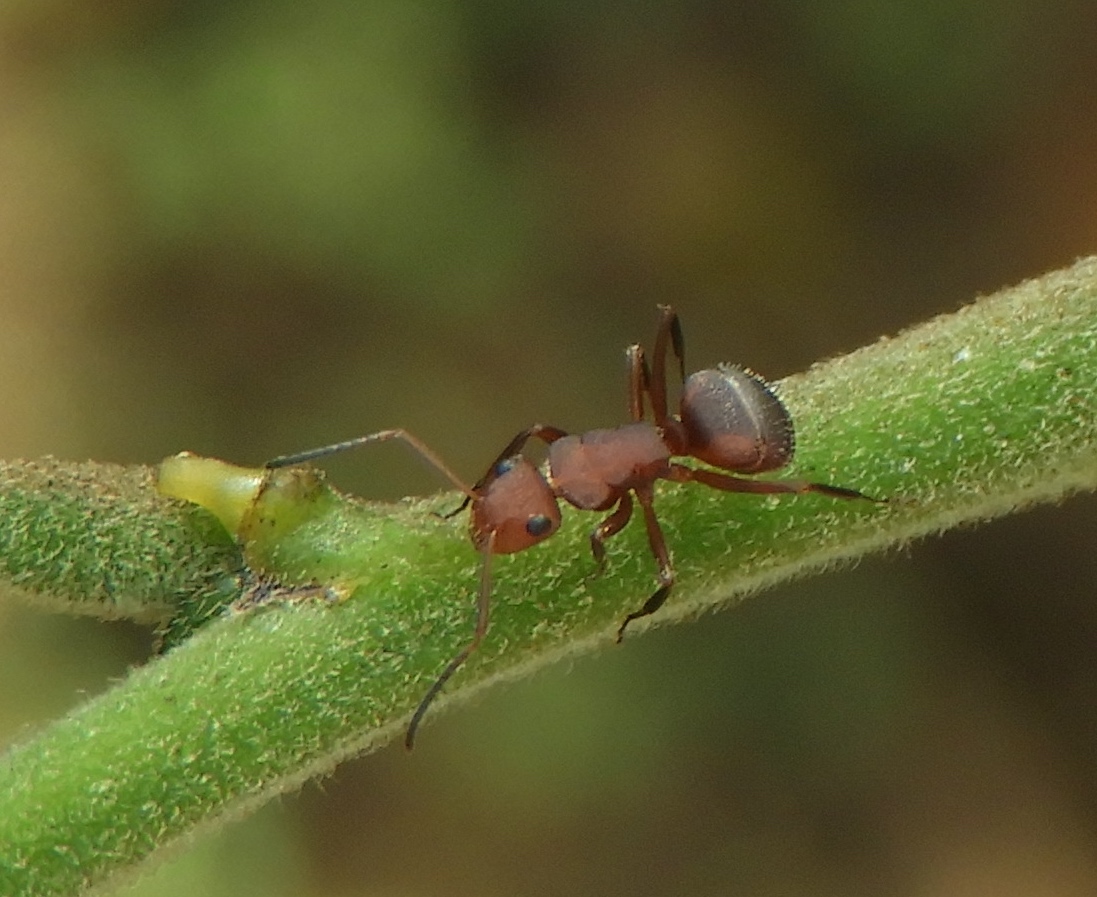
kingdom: Animalia
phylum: Arthropoda
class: Insecta
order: Hymenoptera
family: Formicidae
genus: Camponotus
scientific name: Camponotus rectangularis
